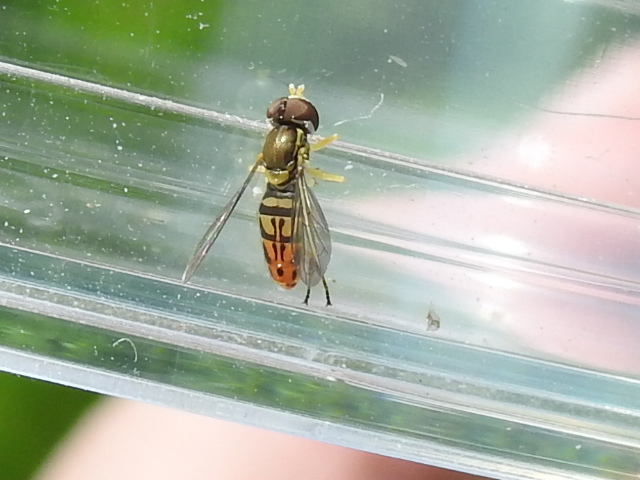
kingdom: Animalia
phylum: Arthropoda
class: Insecta
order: Diptera
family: Syrphidae
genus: Toxomerus
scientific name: Toxomerus marginatus
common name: Syrphid fly
